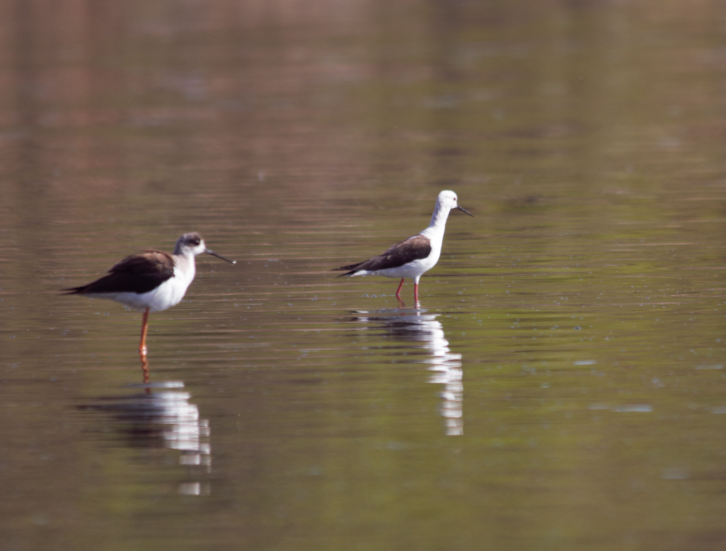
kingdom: Animalia
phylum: Chordata
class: Aves
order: Charadriiformes
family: Recurvirostridae
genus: Himantopus
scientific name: Himantopus himantopus
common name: Black-winged stilt
